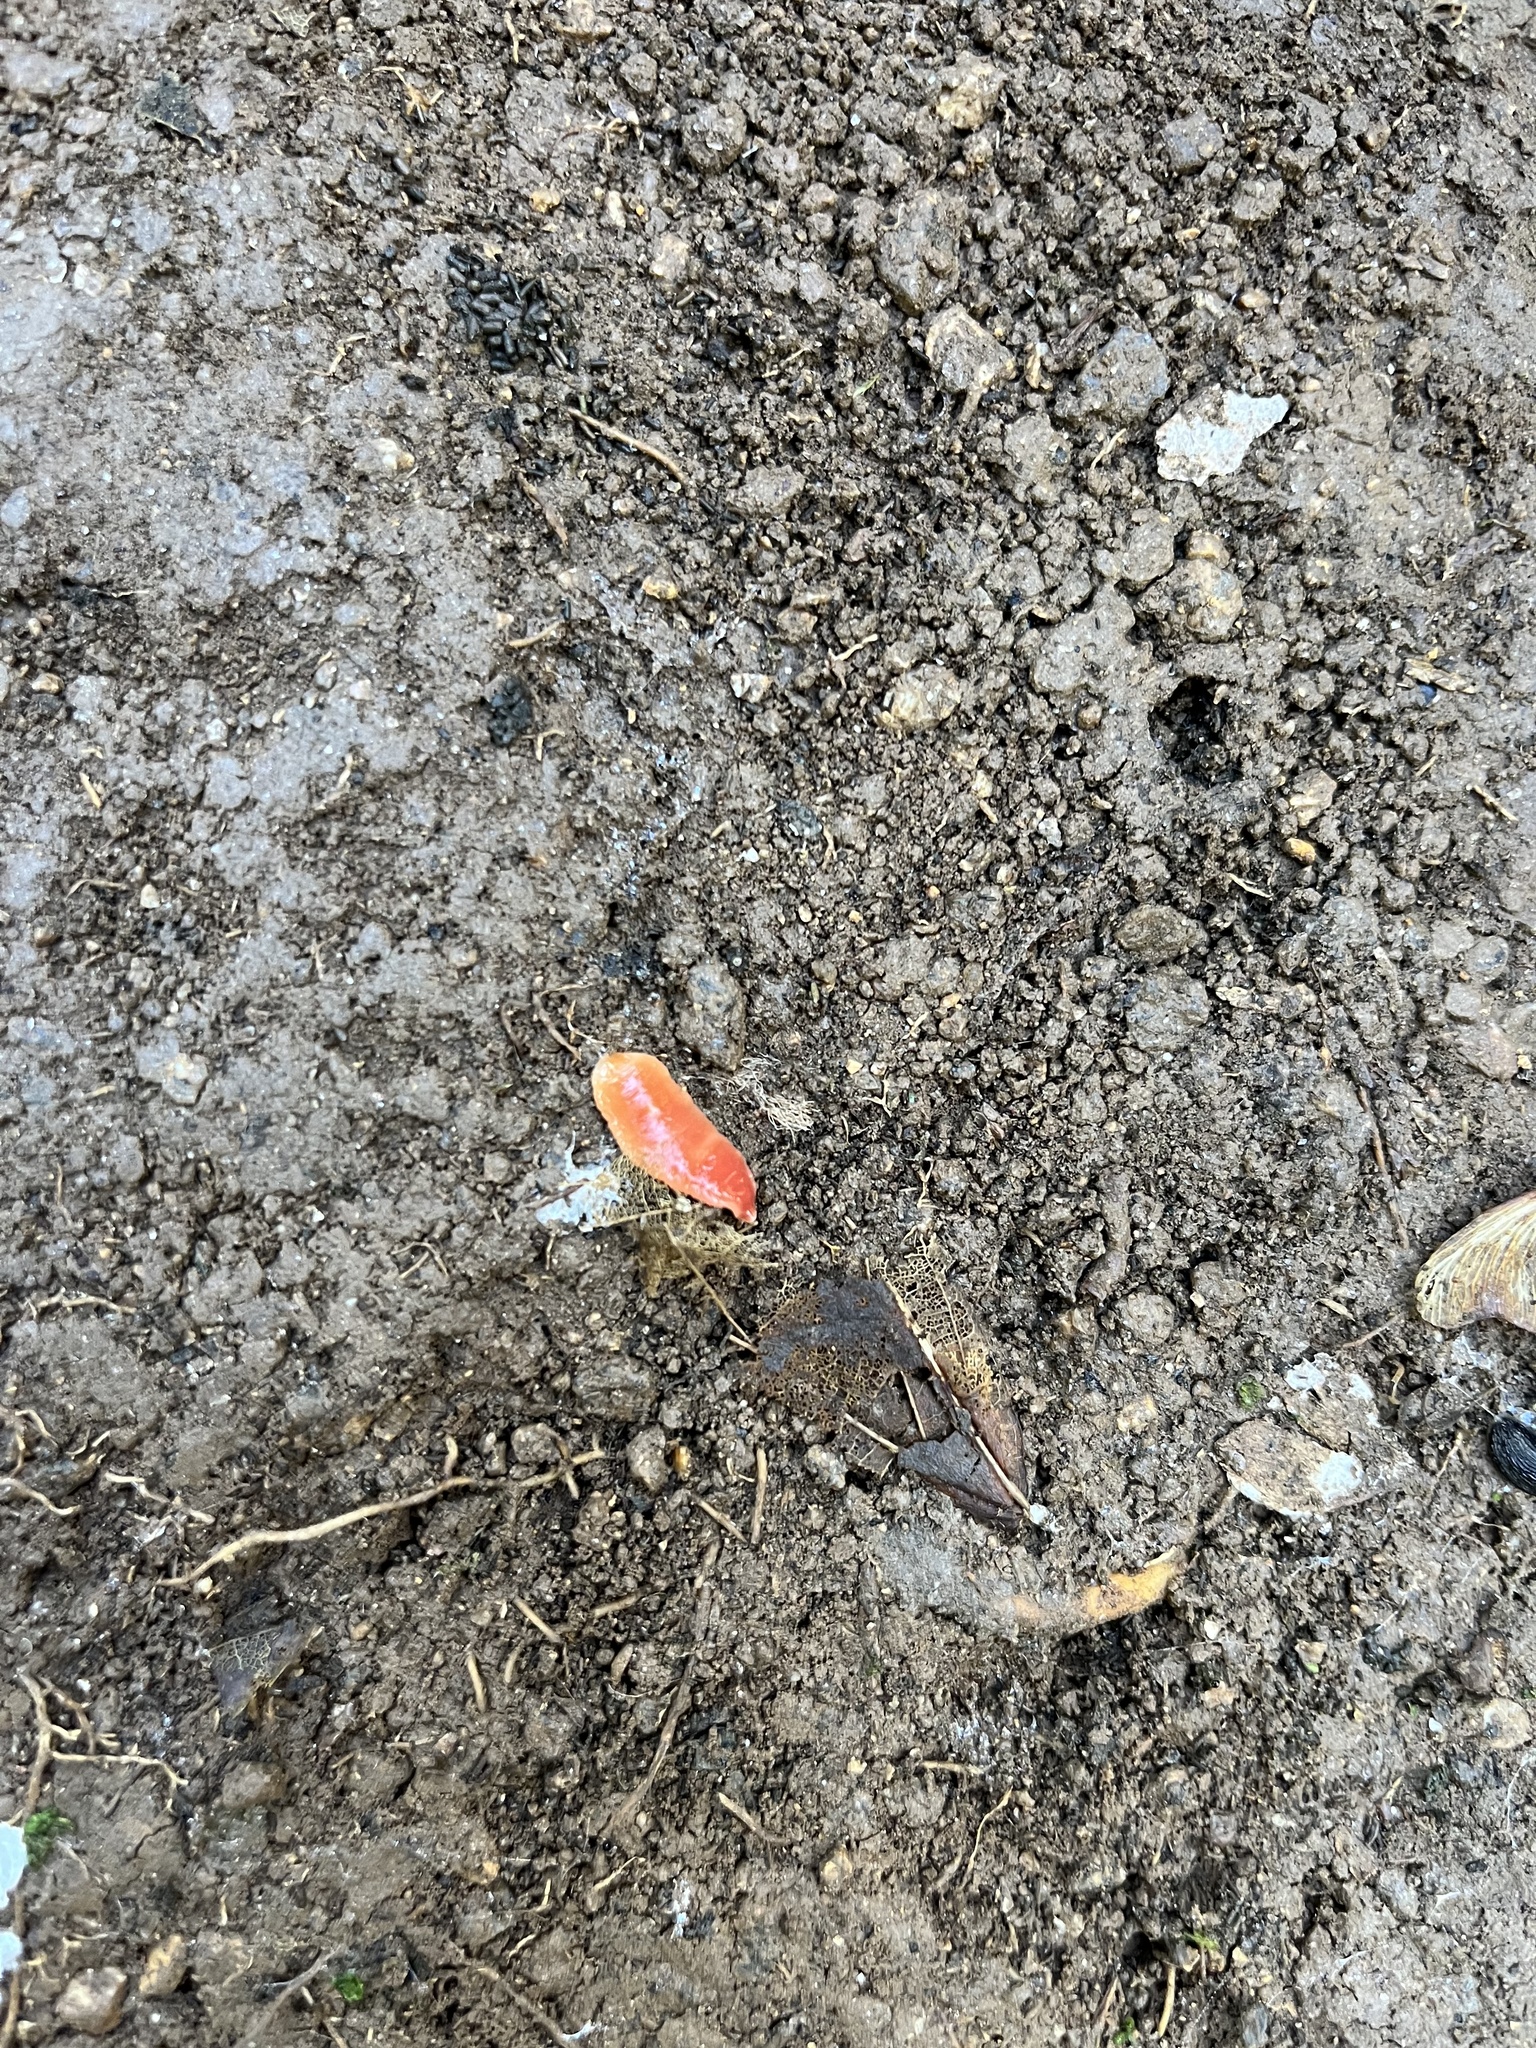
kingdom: Animalia
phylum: Platyhelminthes
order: Tricladida
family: Geoplanidae
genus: Australoplana
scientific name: Australoplana sanguinea
